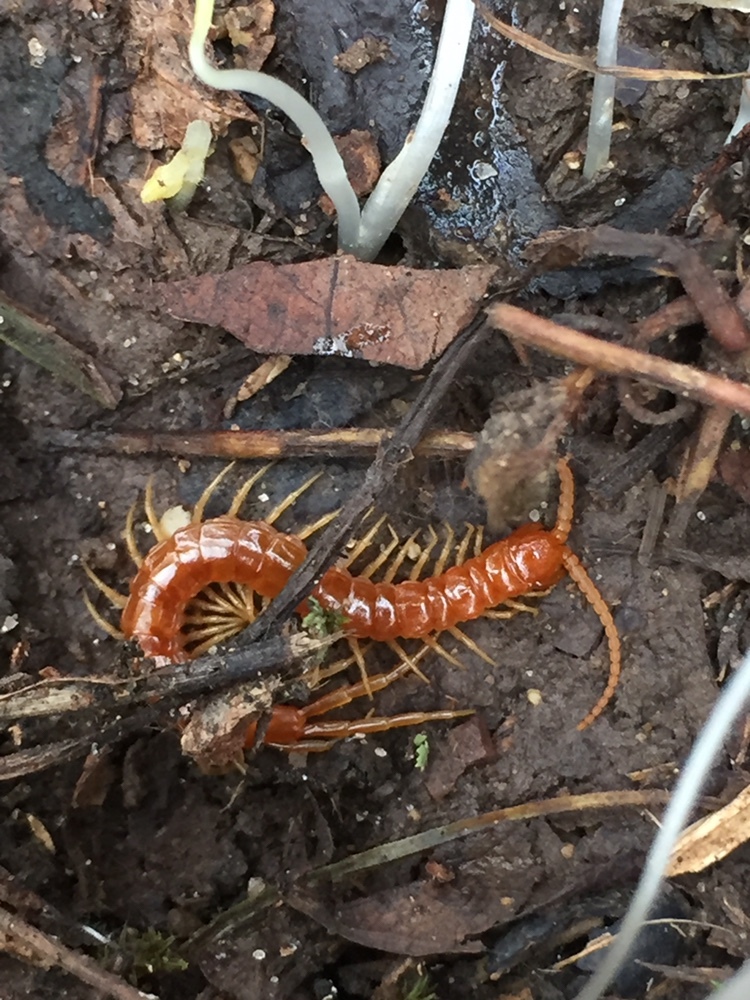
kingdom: Animalia
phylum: Arthropoda
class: Chilopoda
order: Scolopendromorpha
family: Scolopocryptopidae
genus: Scolopocryptops
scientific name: Scolopocryptops sexspinosus
